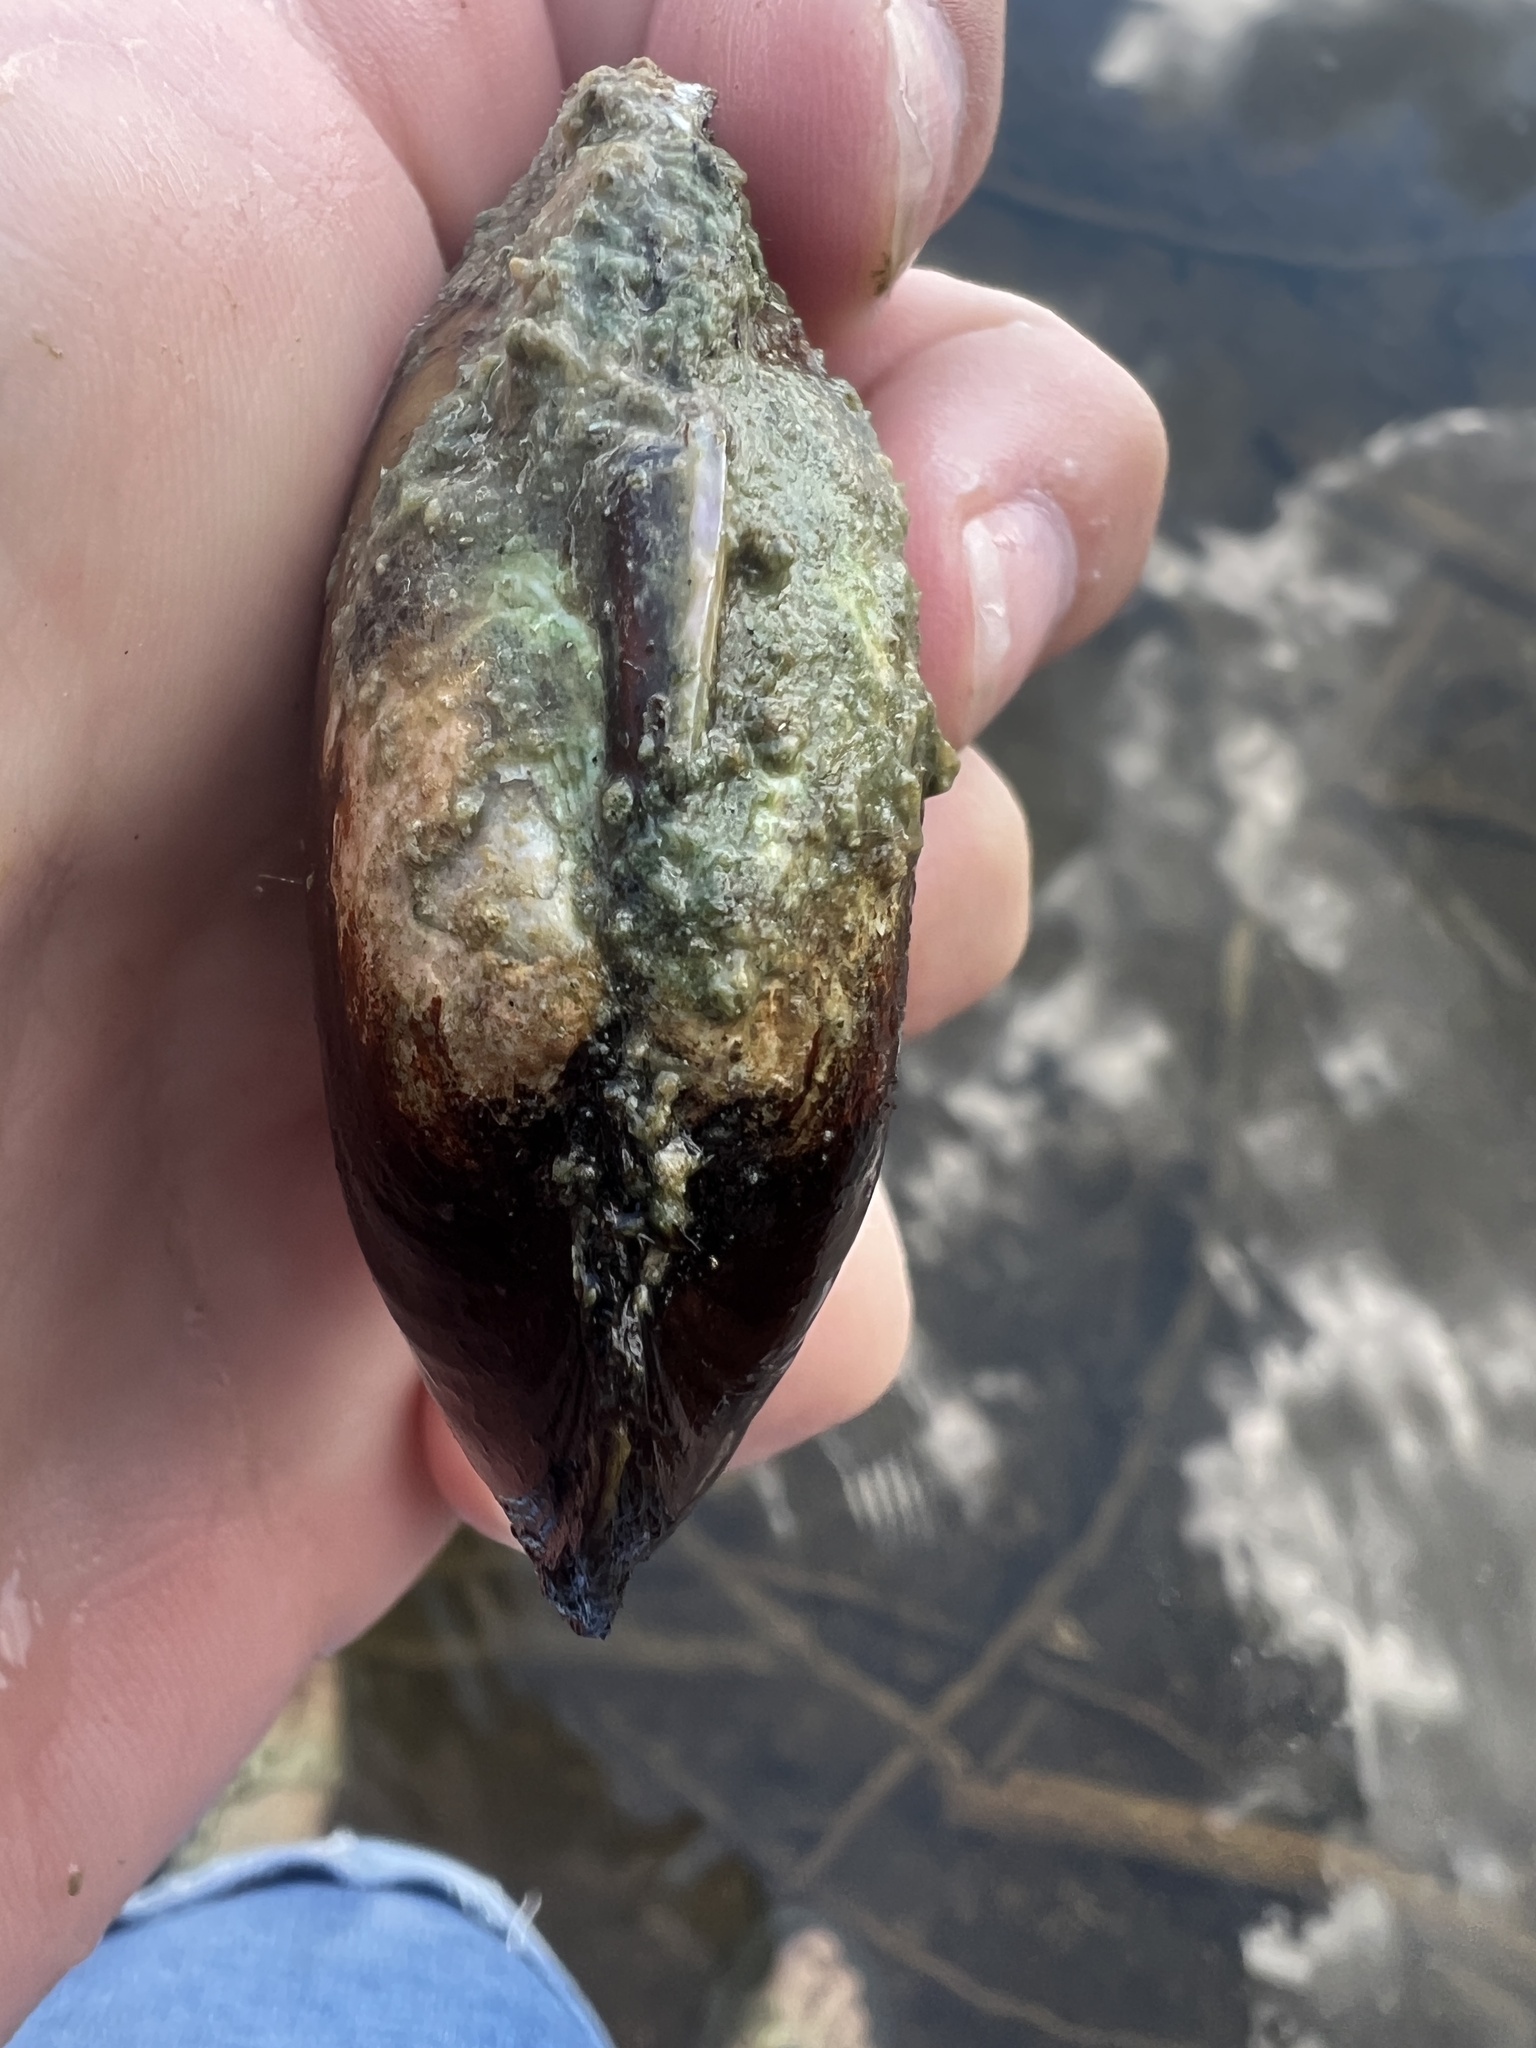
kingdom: Animalia
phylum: Mollusca
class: Bivalvia
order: Unionida
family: Unionidae
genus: Lampsilis
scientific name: Lampsilis siliquoidea
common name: Fatmucket
